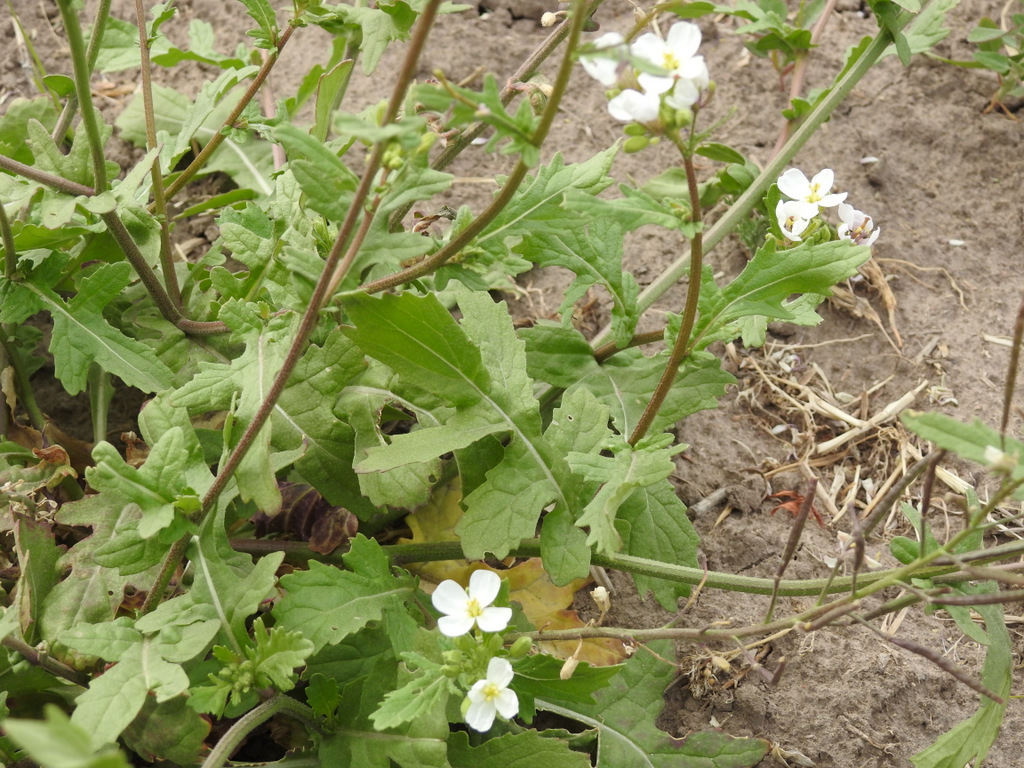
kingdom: Plantae
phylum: Tracheophyta
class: Magnoliopsida
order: Brassicales
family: Brassicaceae
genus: Diplotaxis
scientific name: Diplotaxis erucoides
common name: White rocket
